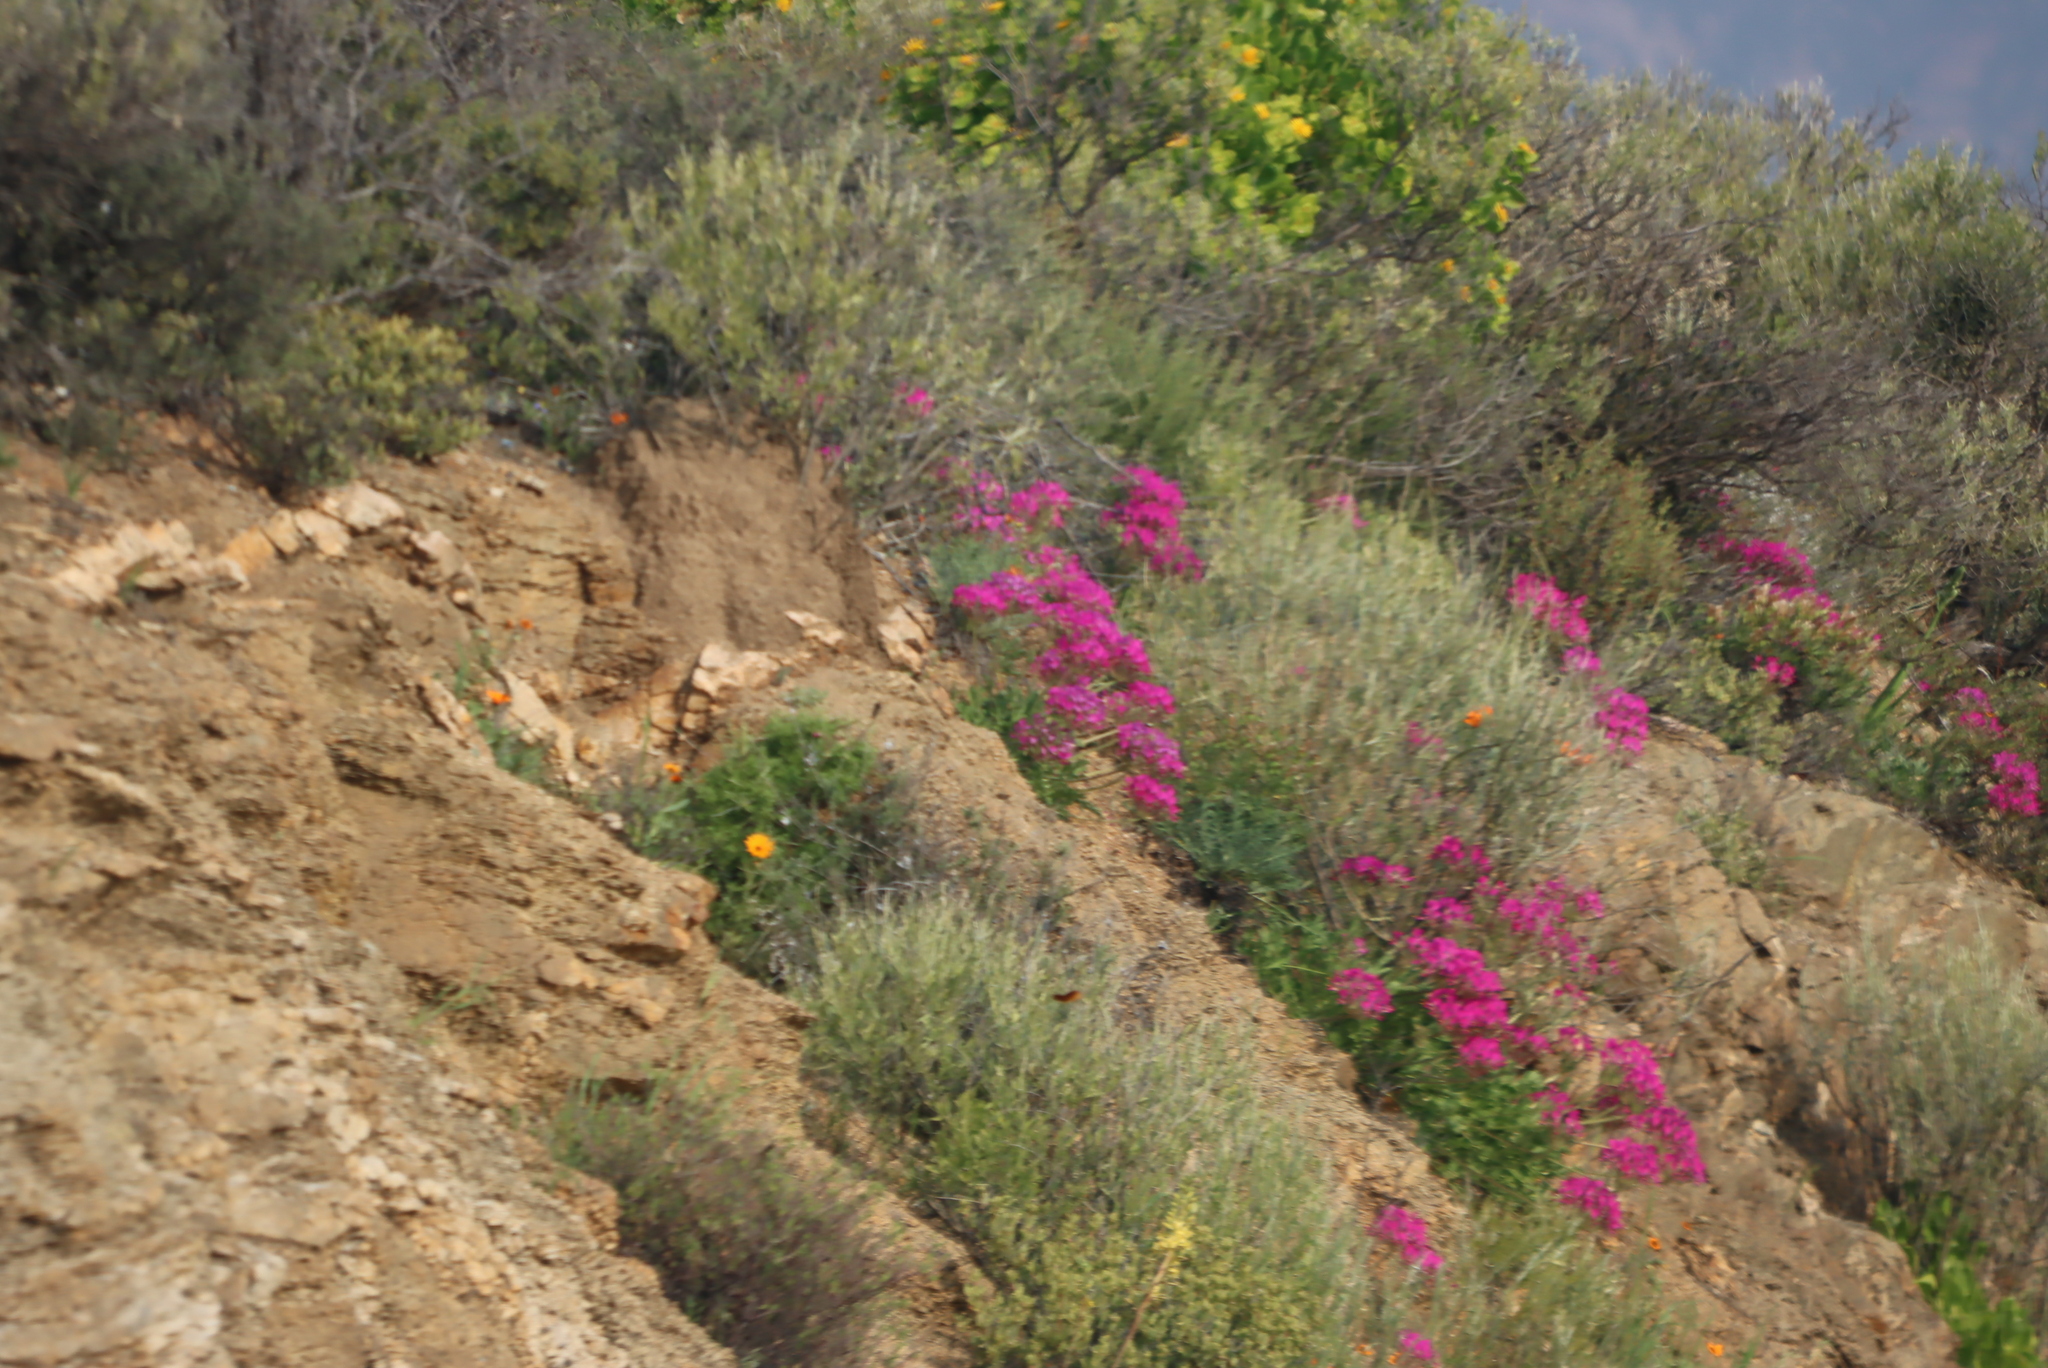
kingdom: Plantae
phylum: Tracheophyta
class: Magnoliopsida
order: Geraniales
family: Geraniaceae
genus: Pelargonium
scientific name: Pelargonium incrassatum
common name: Namaqualand beauty
